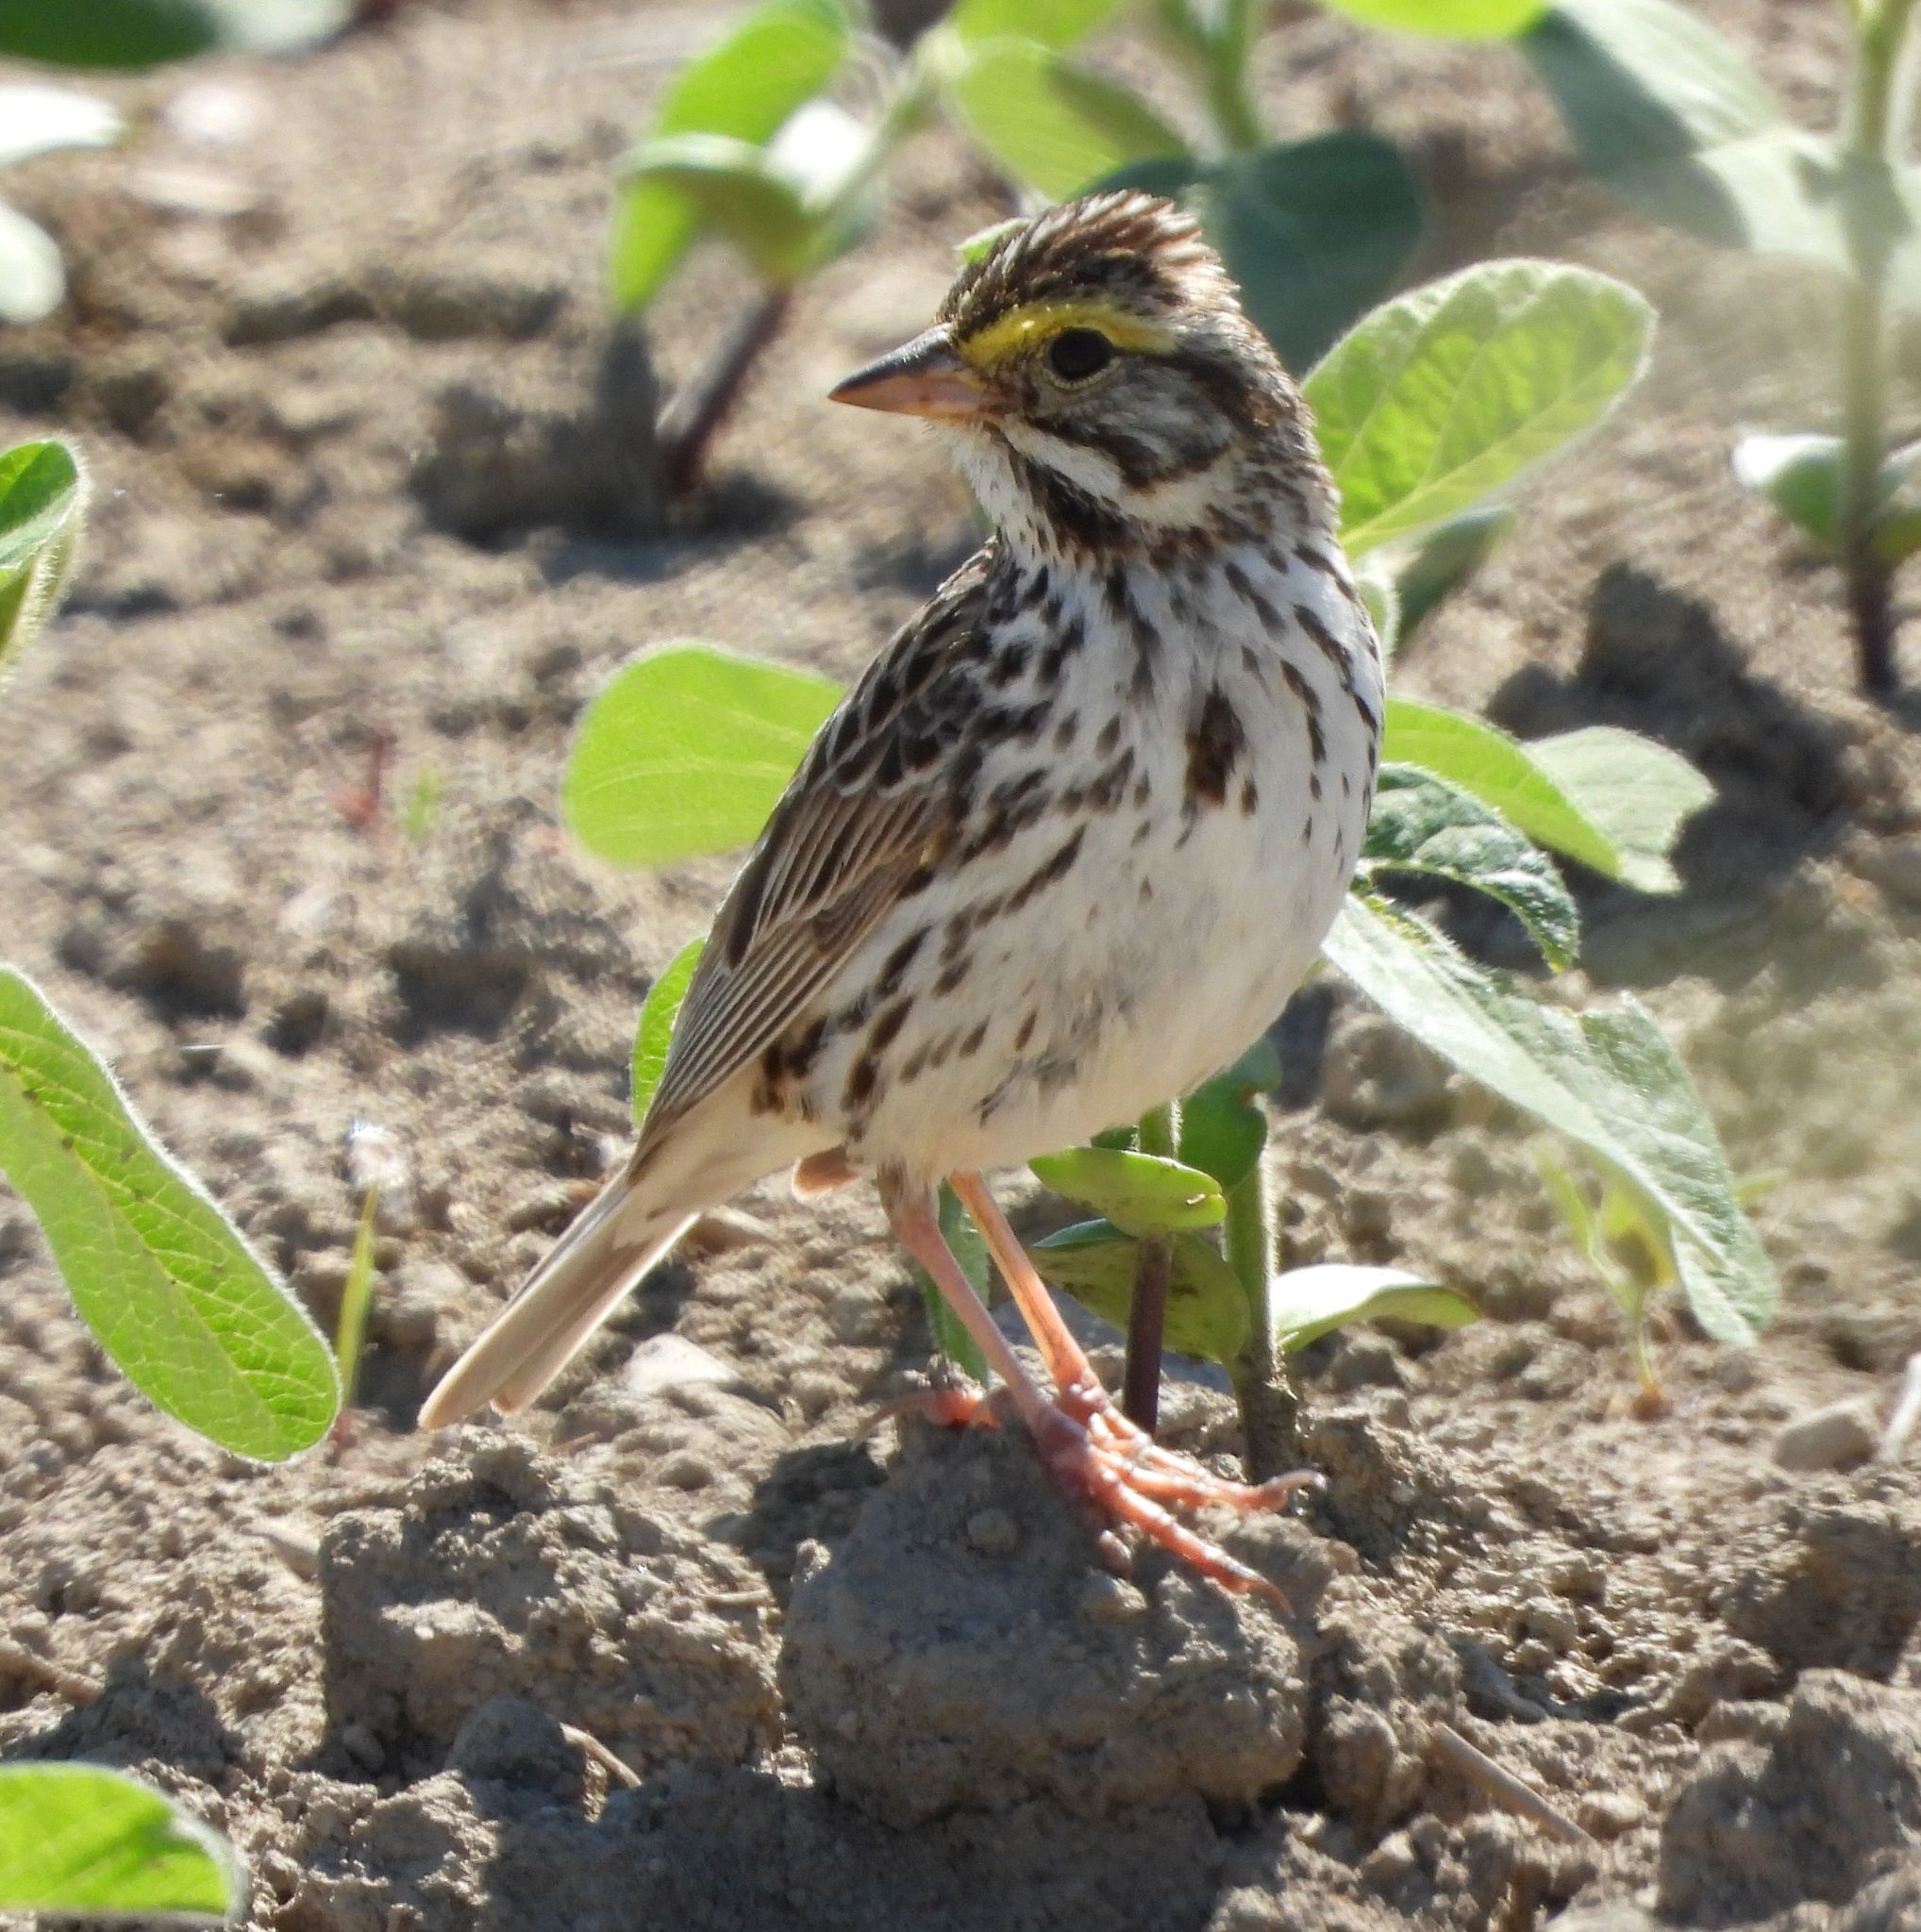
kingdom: Animalia
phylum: Chordata
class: Aves
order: Passeriformes
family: Passerellidae
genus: Passerculus
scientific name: Passerculus sandwichensis
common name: Savannah sparrow
